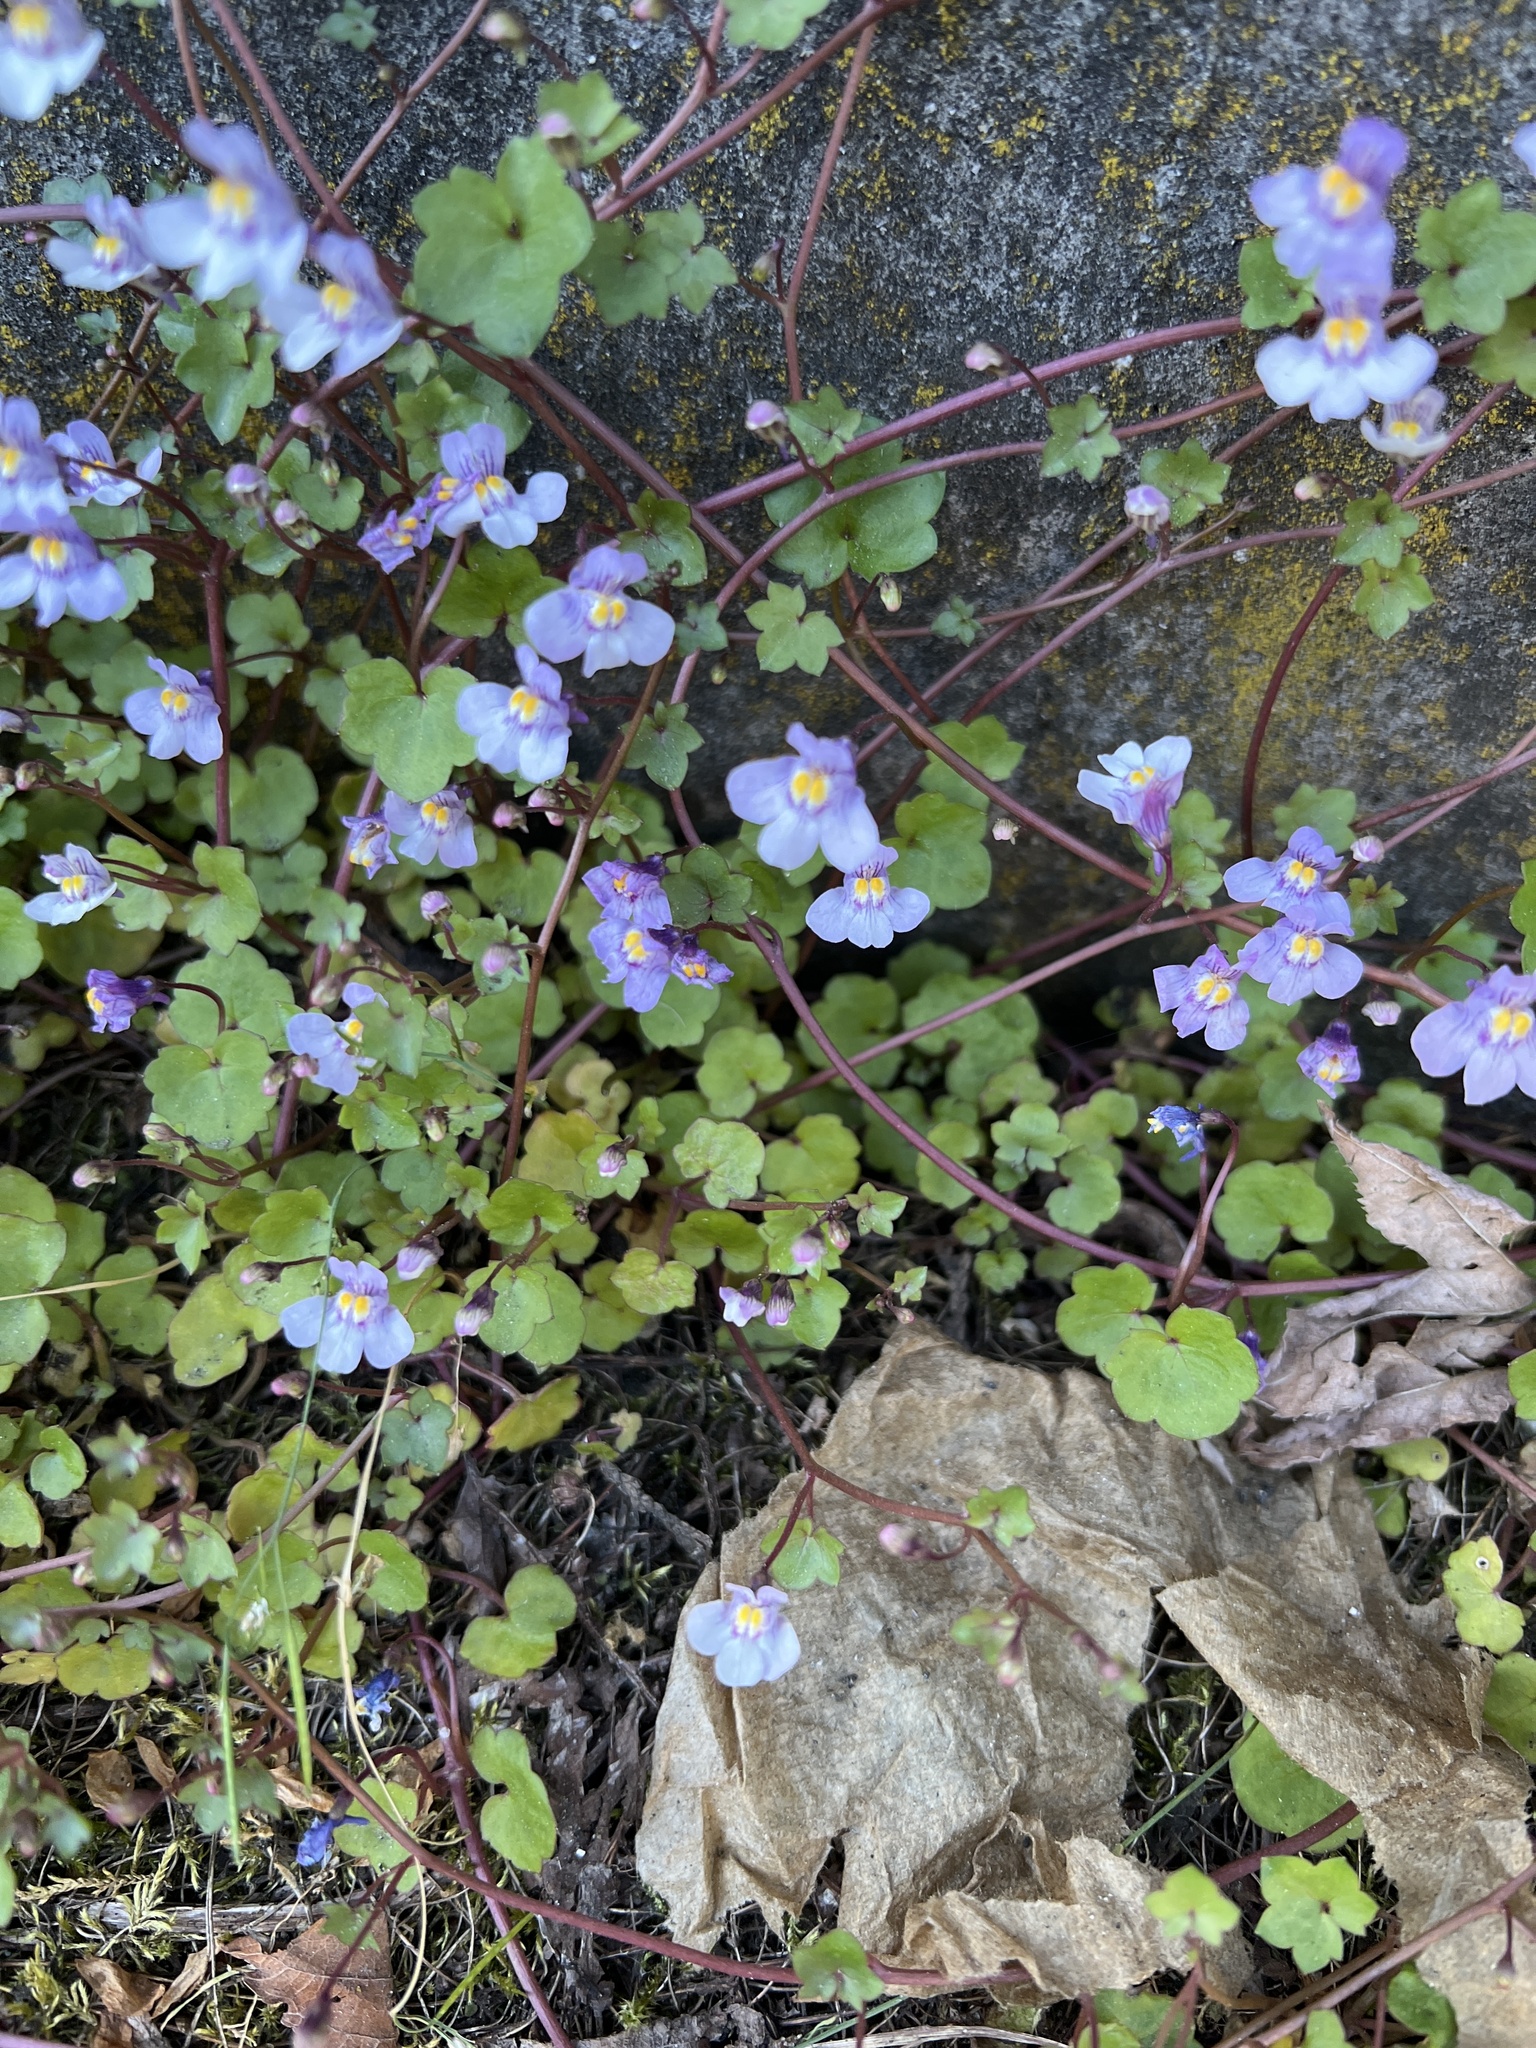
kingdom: Plantae
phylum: Tracheophyta
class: Magnoliopsida
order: Lamiales
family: Plantaginaceae
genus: Cymbalaria
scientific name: Cymbalaria muralis
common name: Ivy-leaved toadflax
